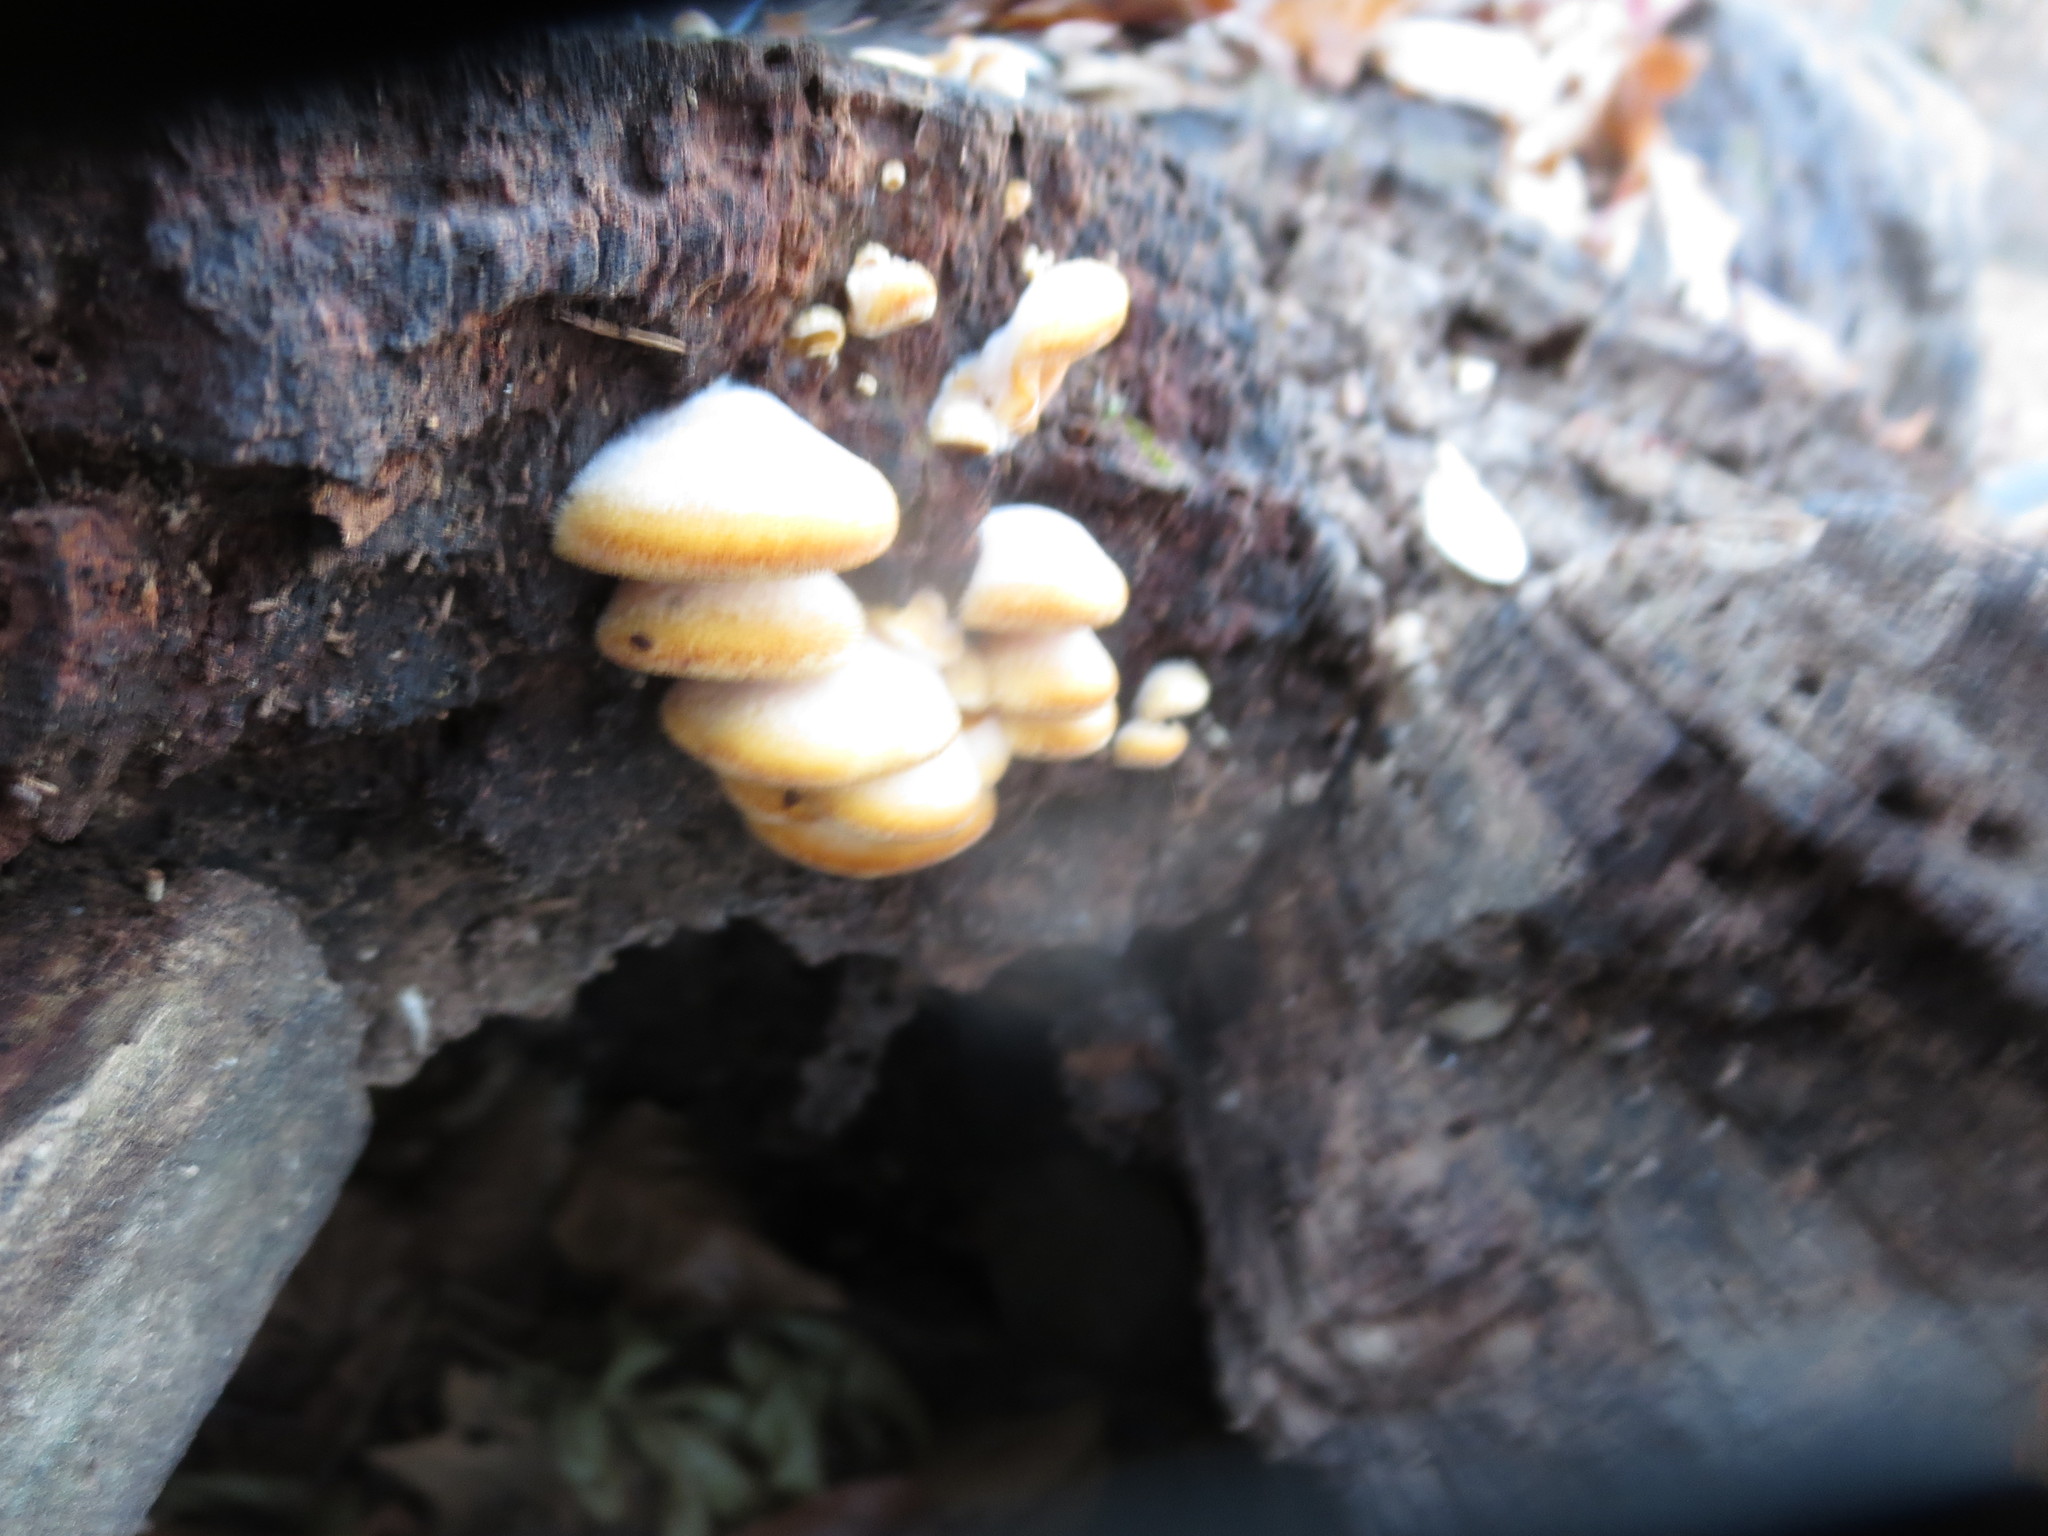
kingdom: Fungi
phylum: Basidiomycota
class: Agaricomycetes
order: Agaricales
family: Phyllotopsidaceae
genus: Phyllotopsis
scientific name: Phyllotopsis nidulans
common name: Orange mock oyster
